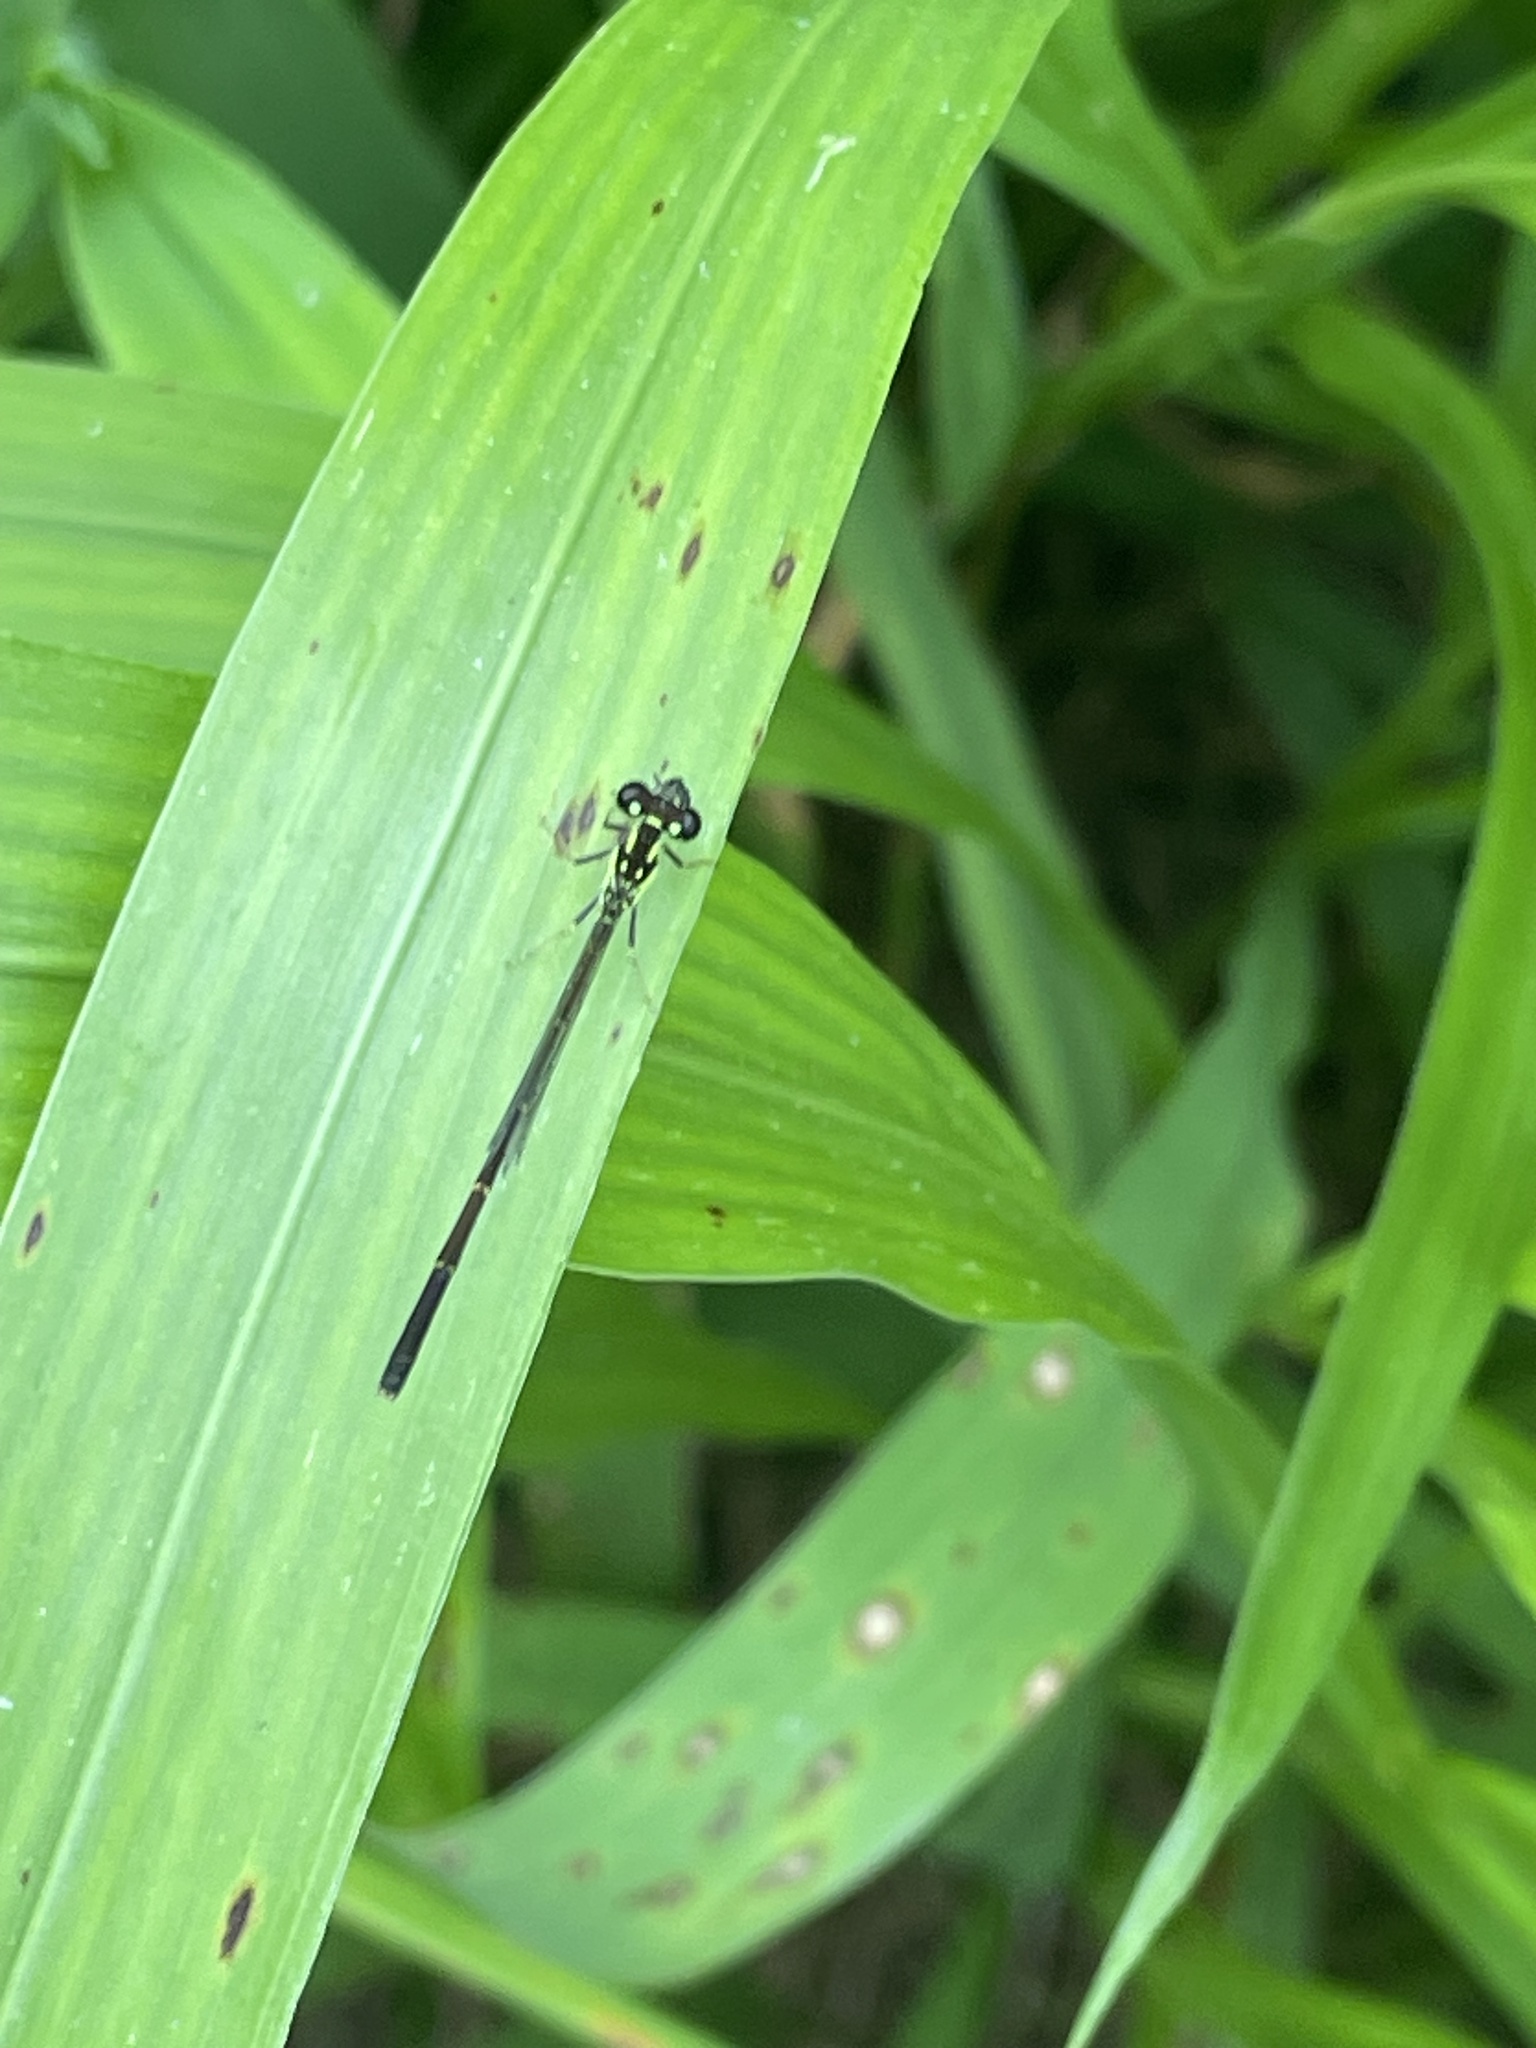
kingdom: Animalia
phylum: Arthropoda
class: Insecta
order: Odonata
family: Coenagrionidae
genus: Ischnura
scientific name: Ischnura posita
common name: Fragile forktail
